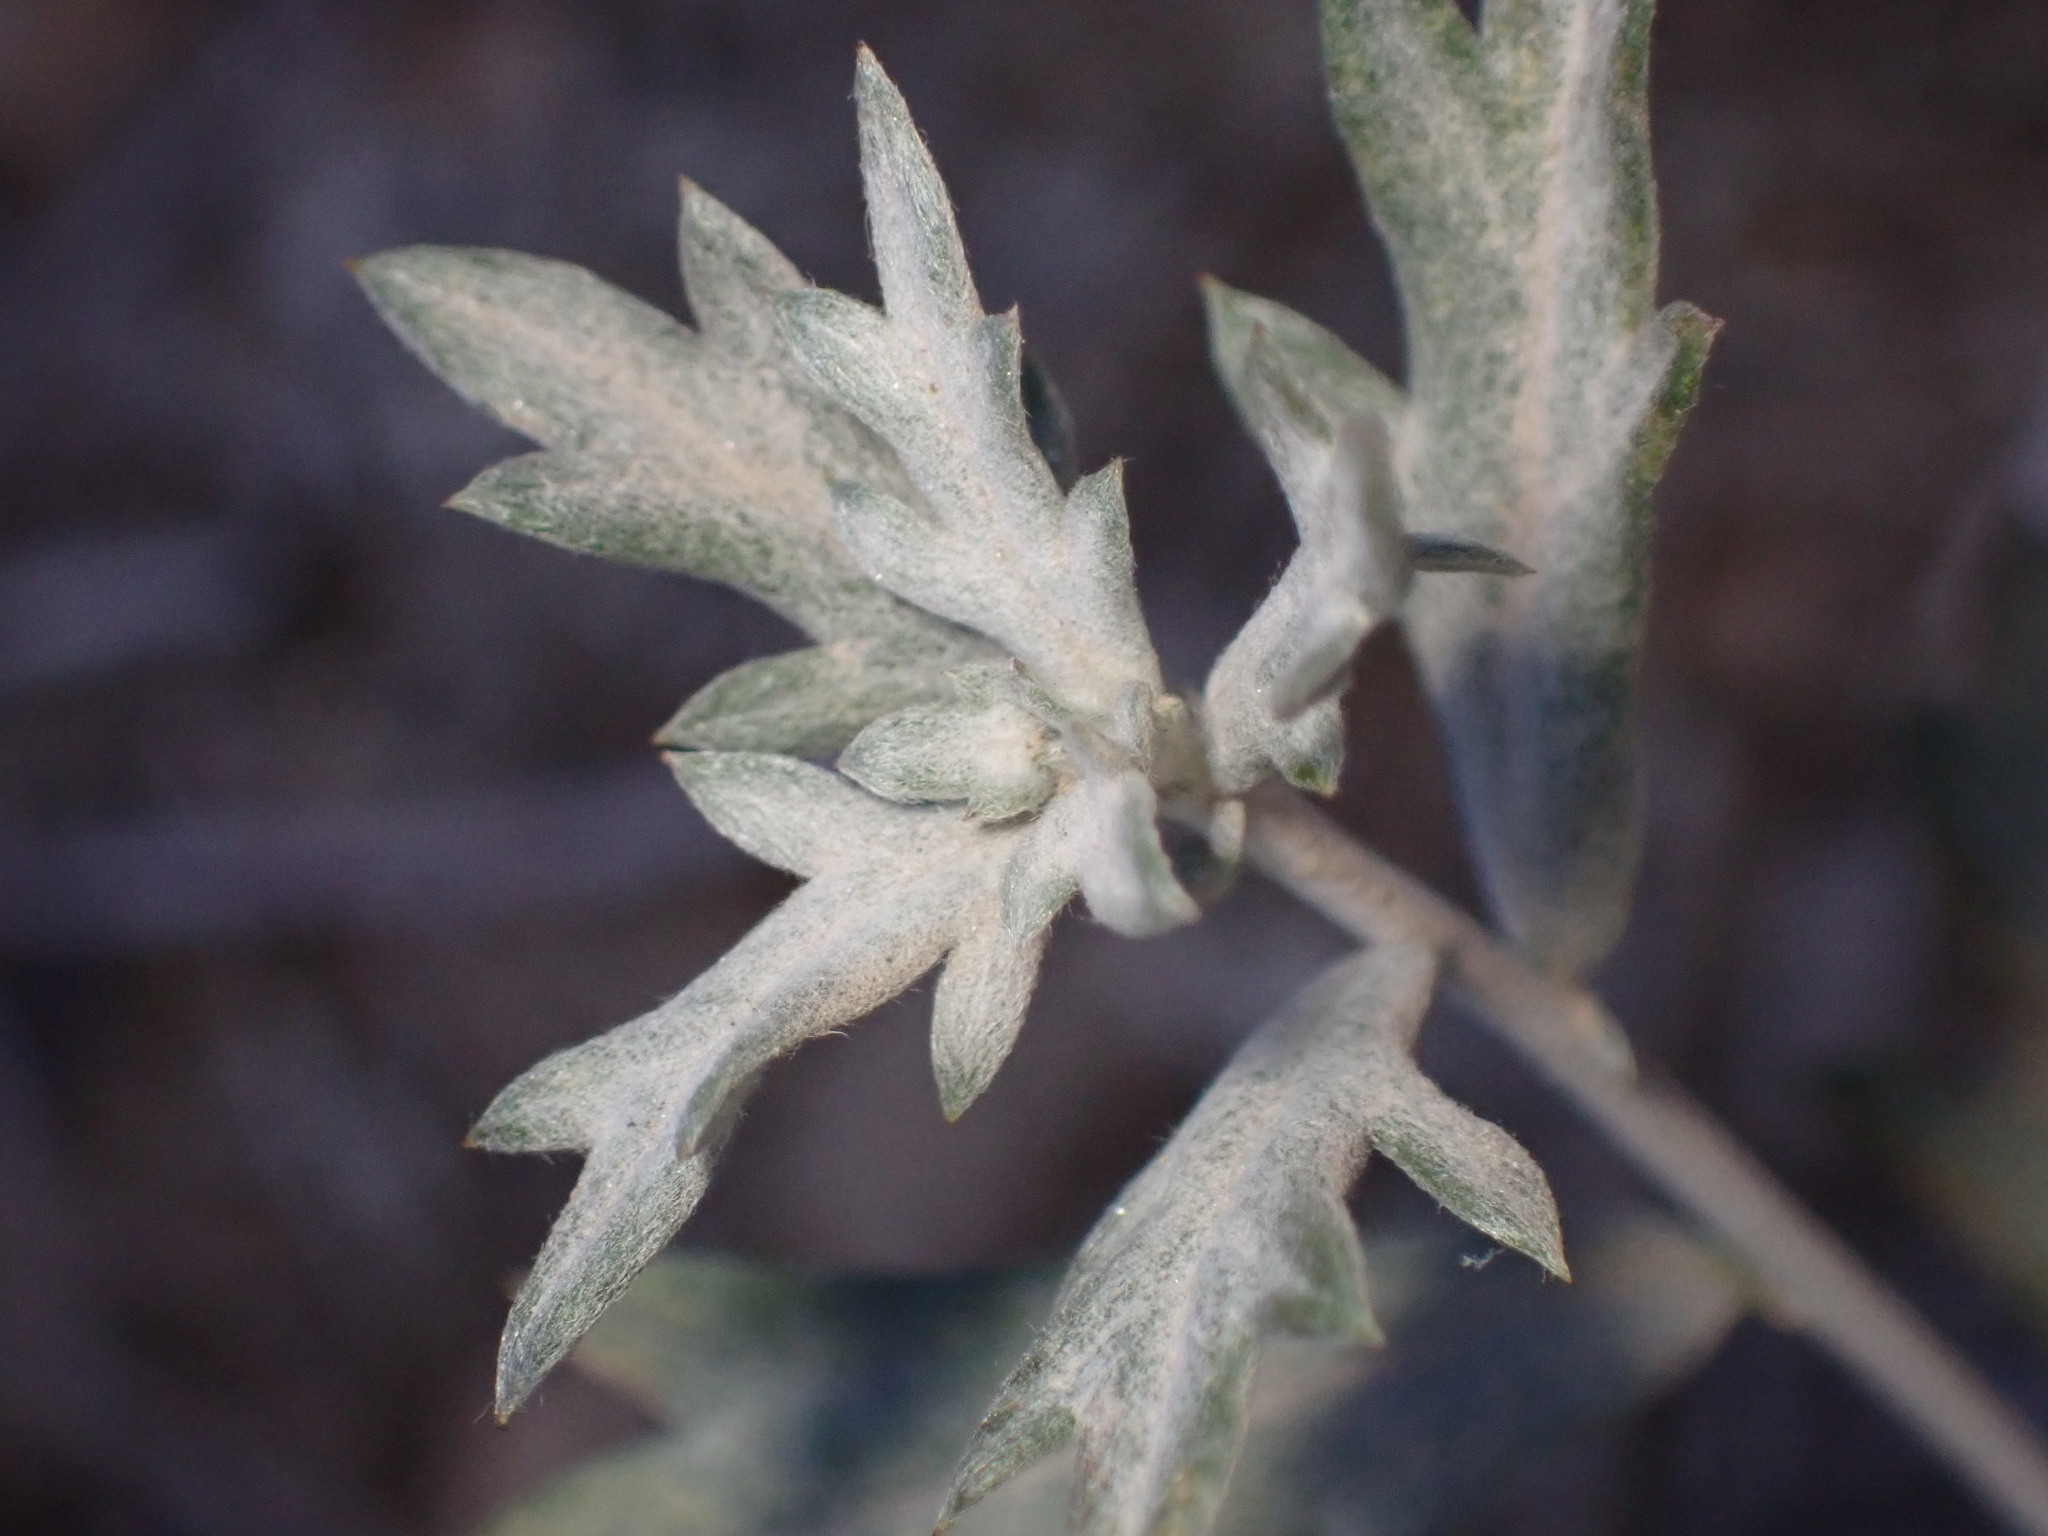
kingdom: Plantae
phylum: Tracheophyta
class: Magnoliopsida
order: Asterales
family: Asteraceae
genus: Artemisia
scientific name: Artemisia ludoviciana
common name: Western mugwort
